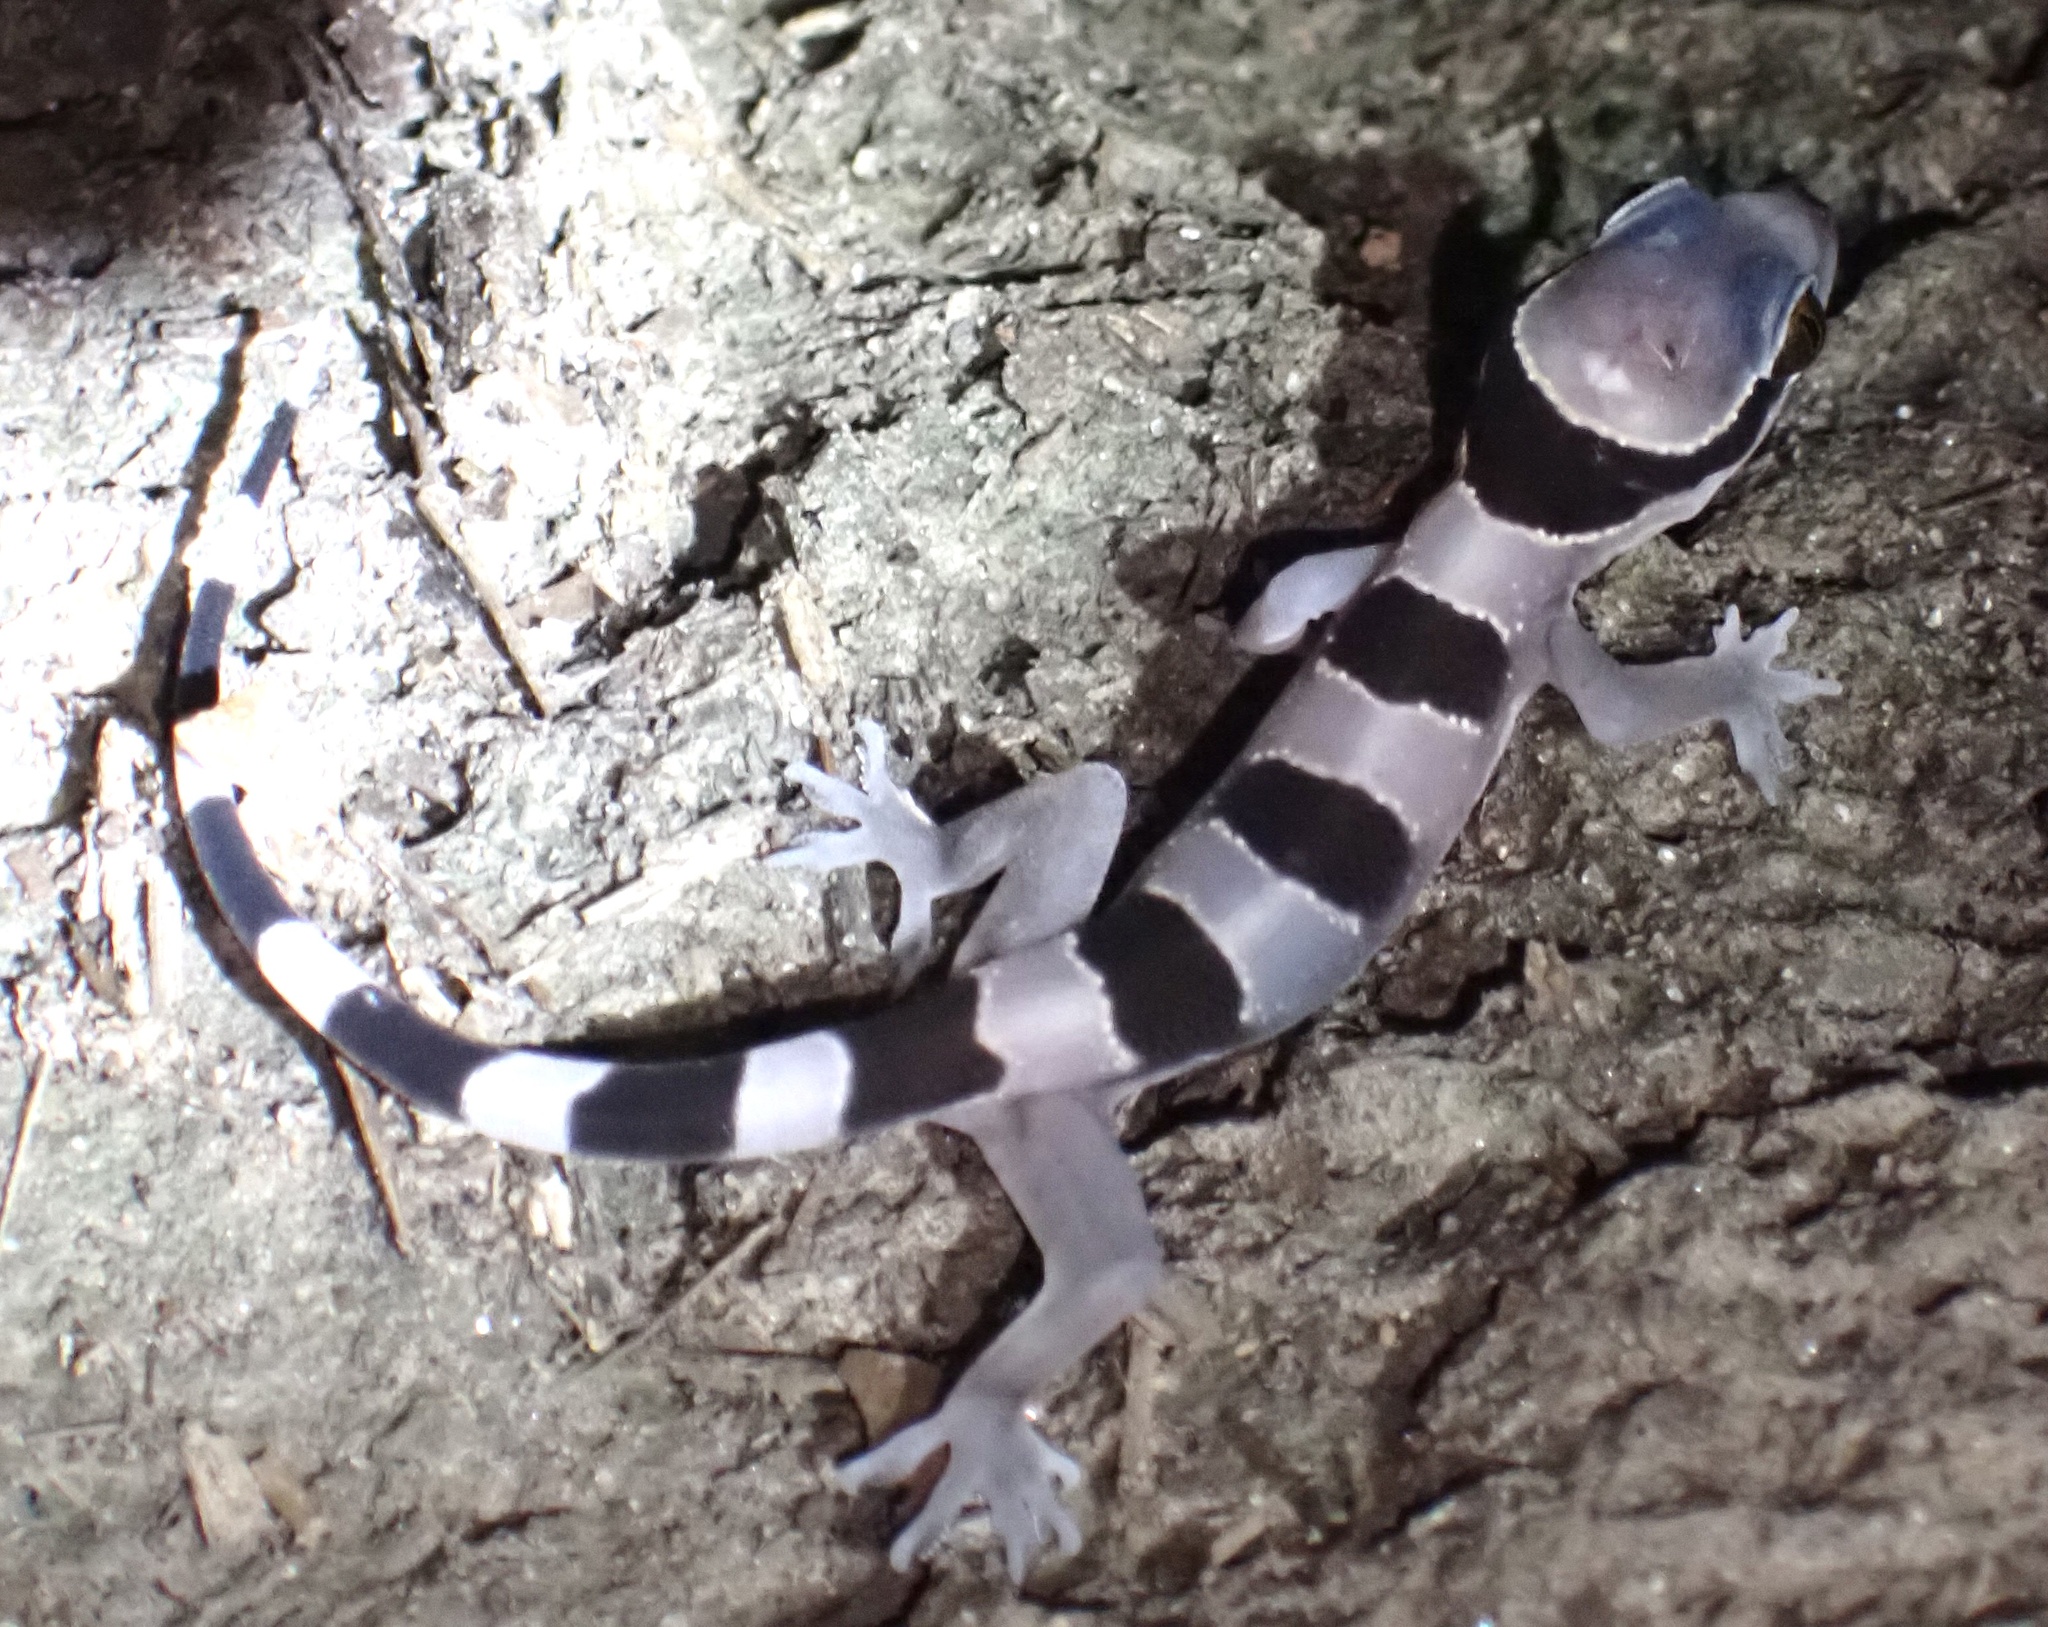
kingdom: Animalia
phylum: Chordata
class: Squamata
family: Gekkonidae
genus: Hemidactylus
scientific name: Hemidactylus fasciatus
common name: Banded leaf-toed gecko
